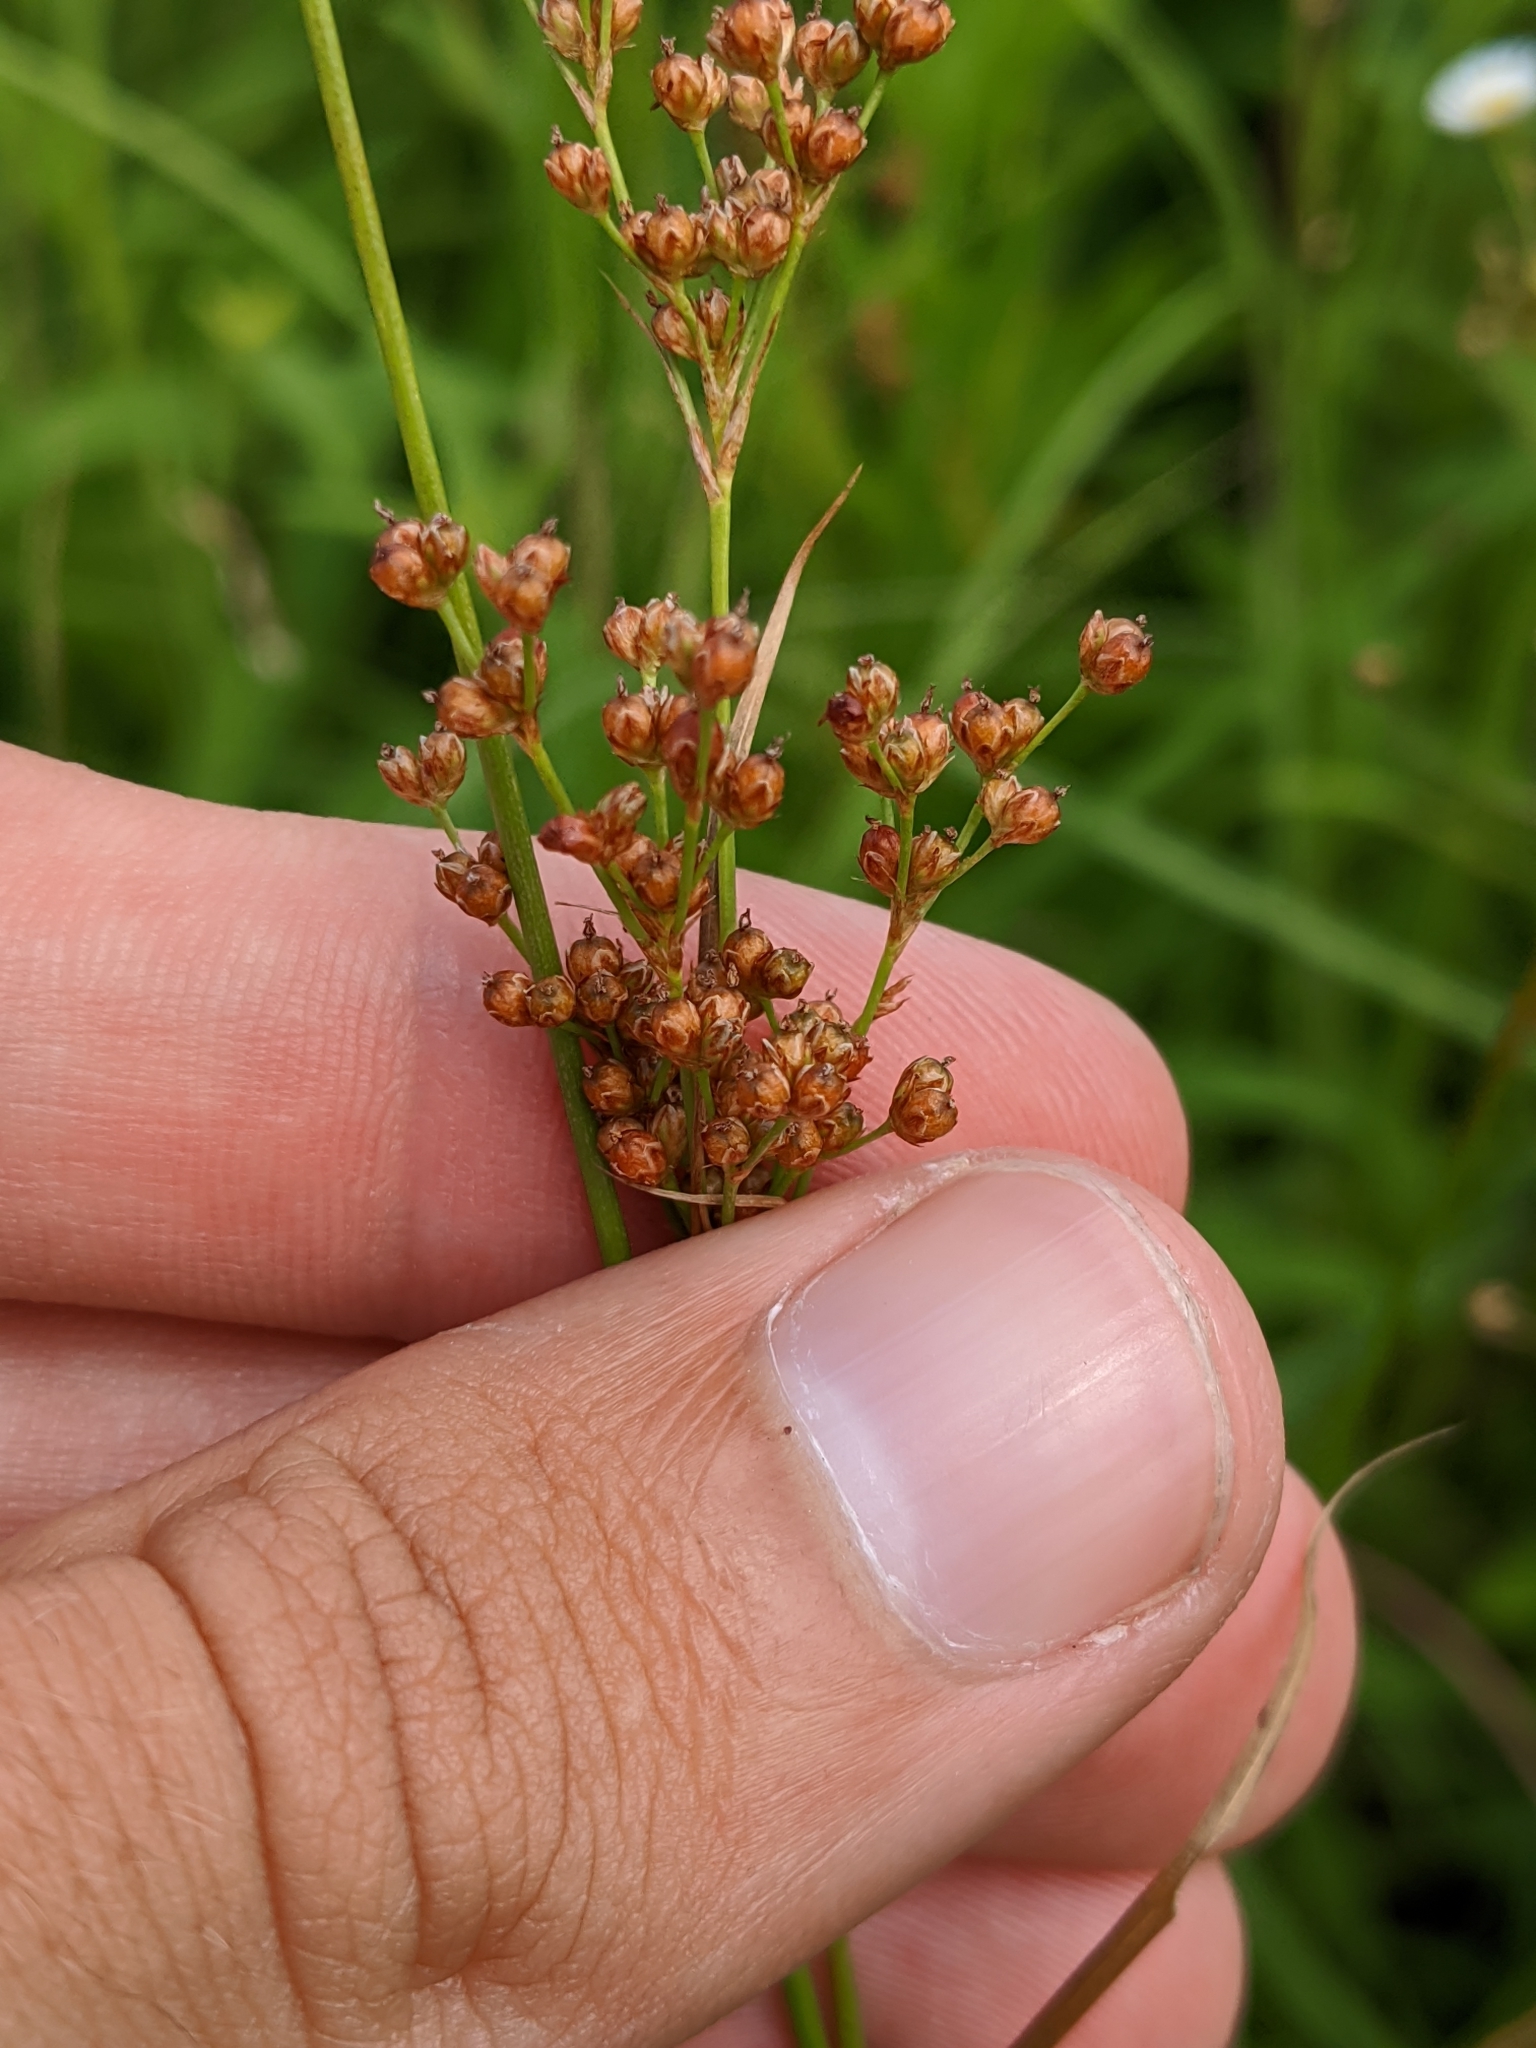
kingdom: Plantae
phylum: Tracheophyta
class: Liliopsida
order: Poales
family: Juncaceae
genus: Juncus
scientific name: Juncus biflorus
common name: Two-flowered rush
